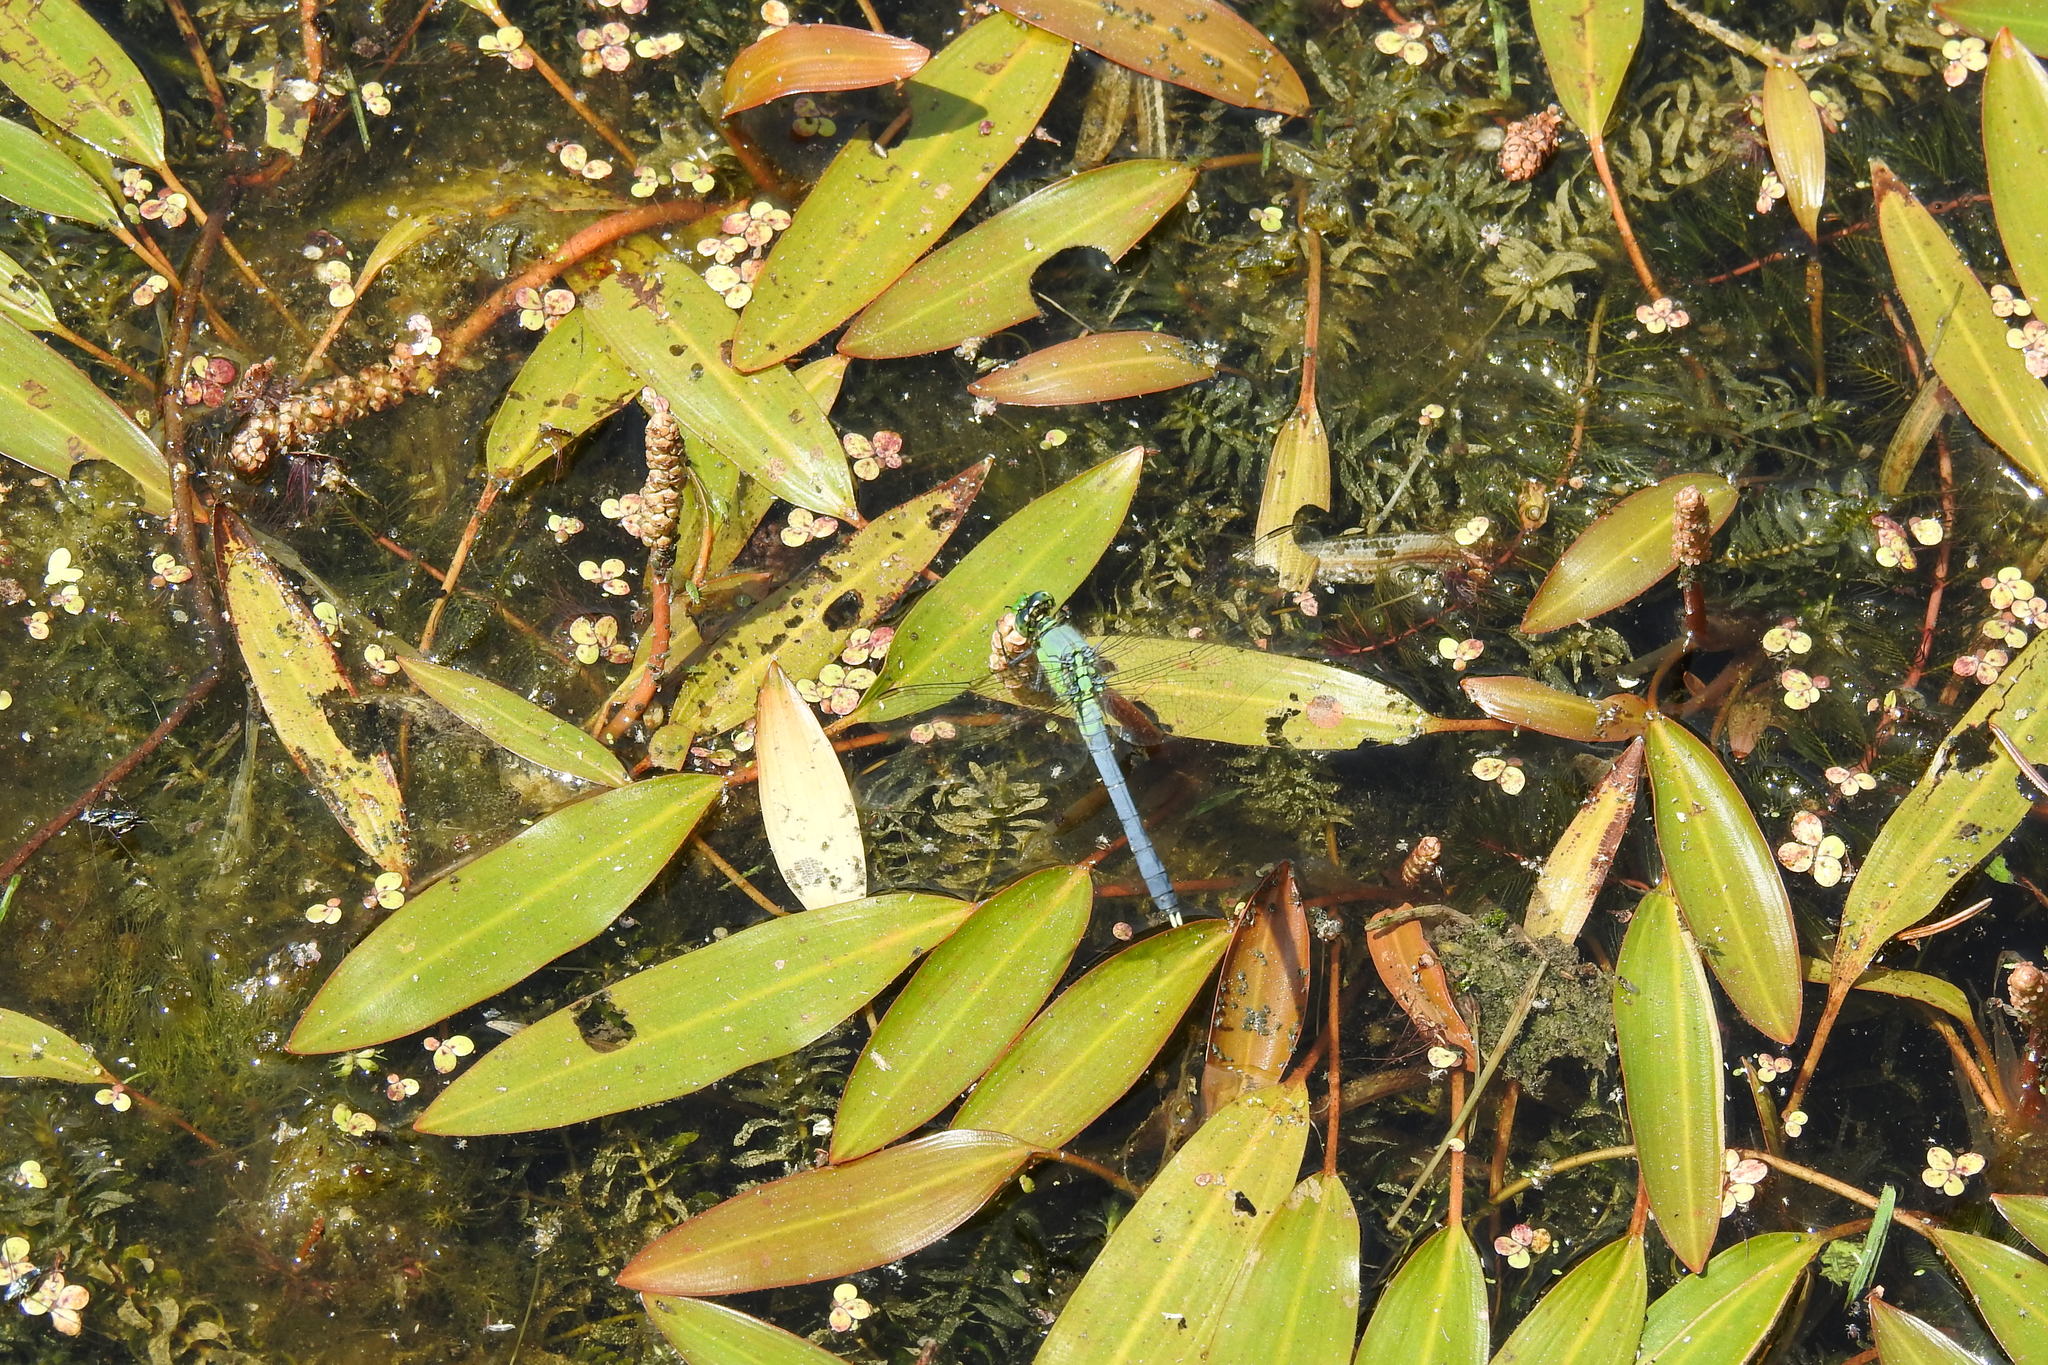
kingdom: Animalia
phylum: Arthropoda
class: Insecta
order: Odonata
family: Libellulidae
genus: Erythemis
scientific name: Erythemis simplicicollis
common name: Eastern pondhawk
